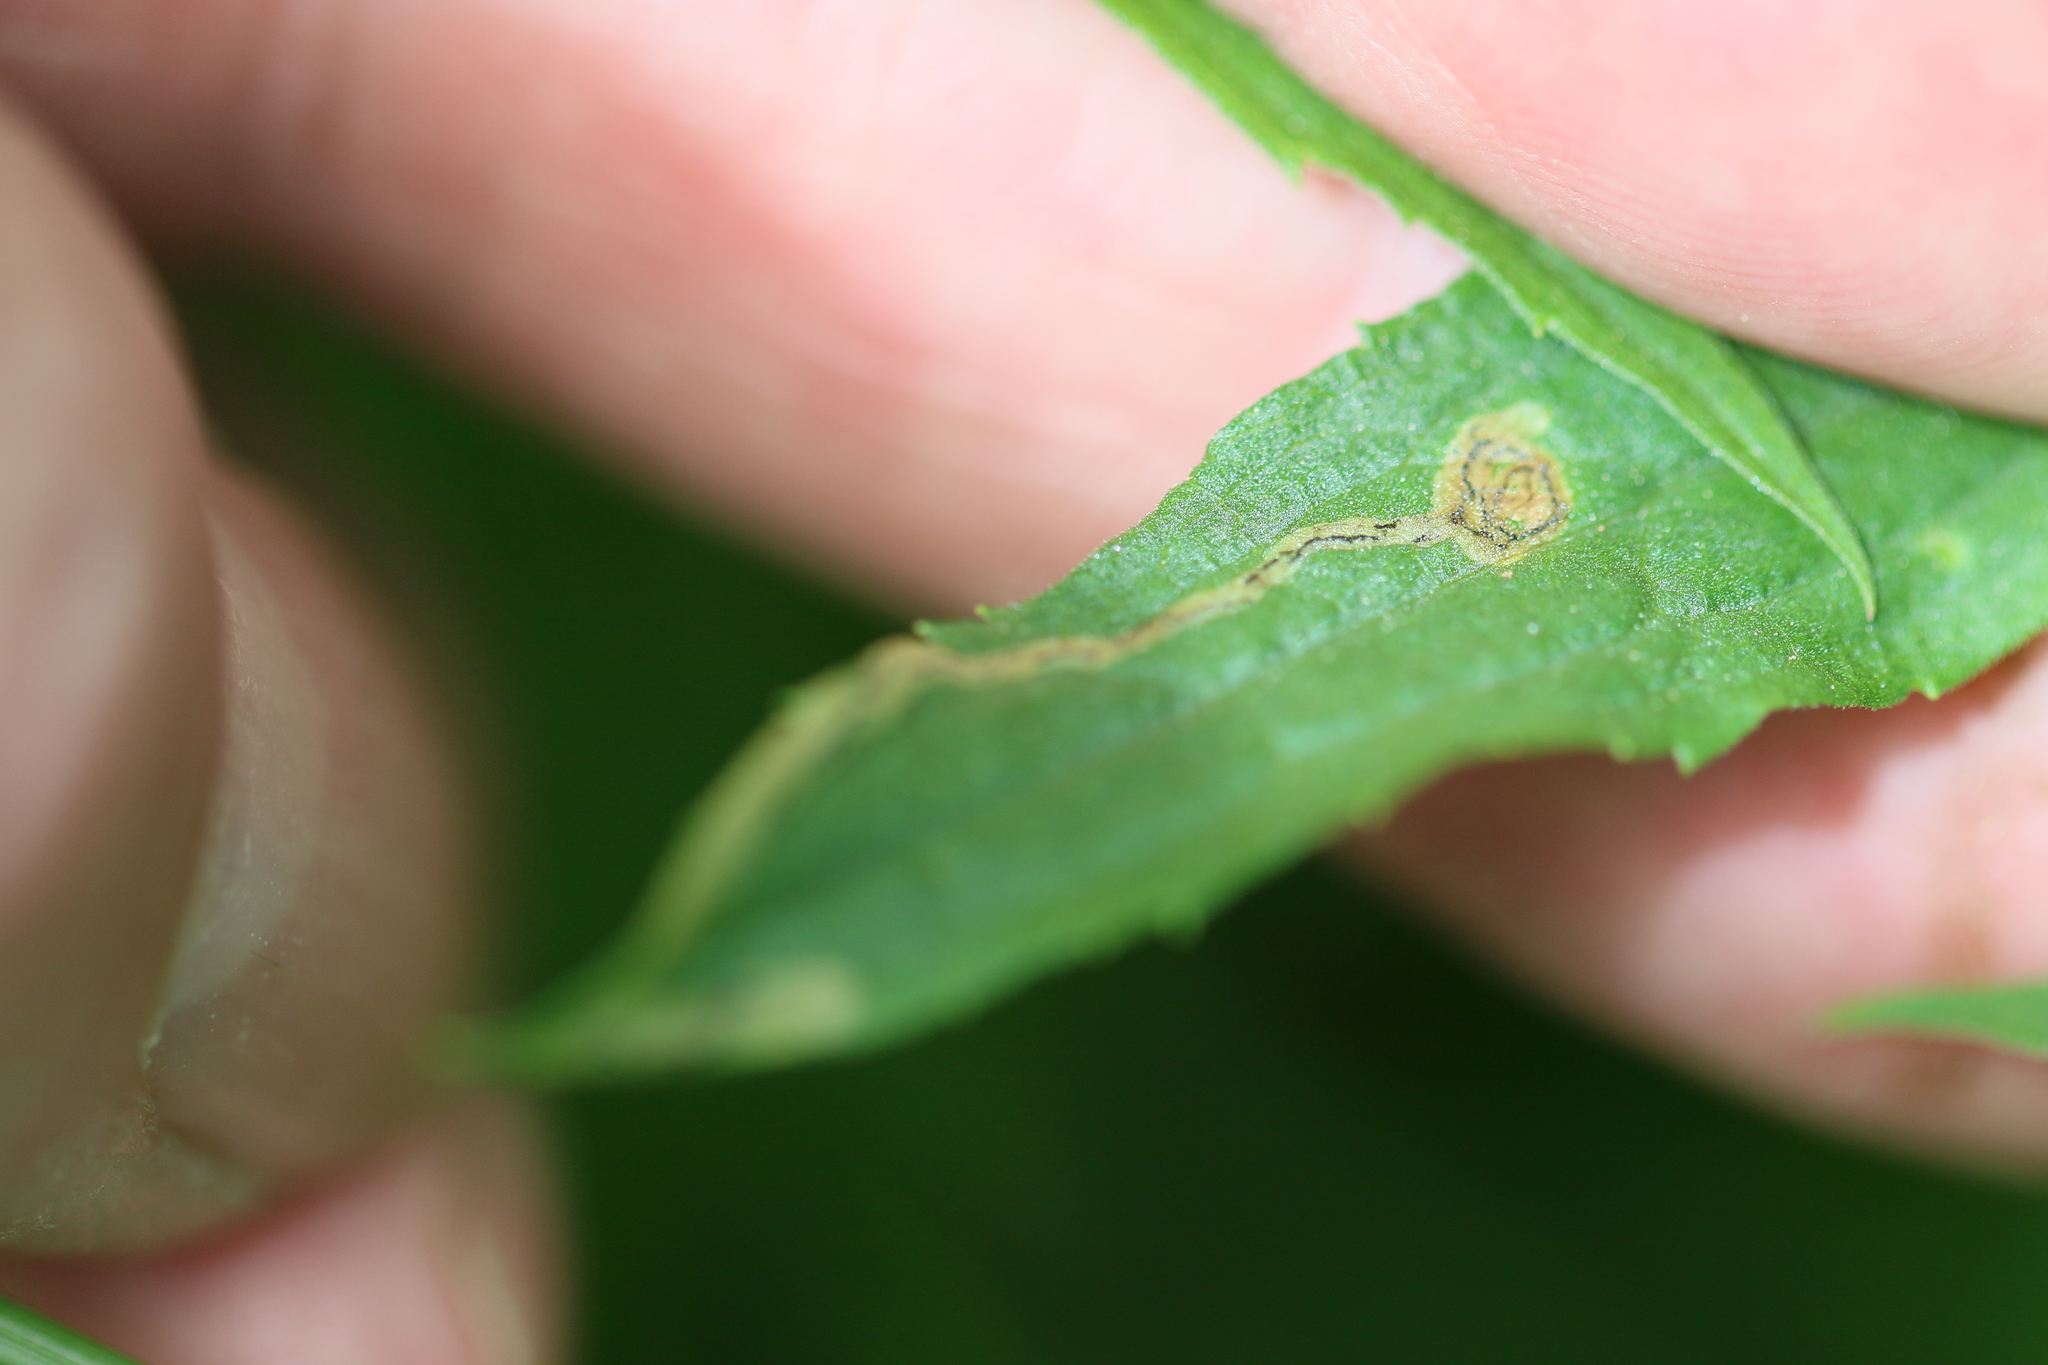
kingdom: Animalia
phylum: Arthropoda
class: Insecta
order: Diptera
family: Agromyzidae
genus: Liriomyza
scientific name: Liriomyza eupatorii
